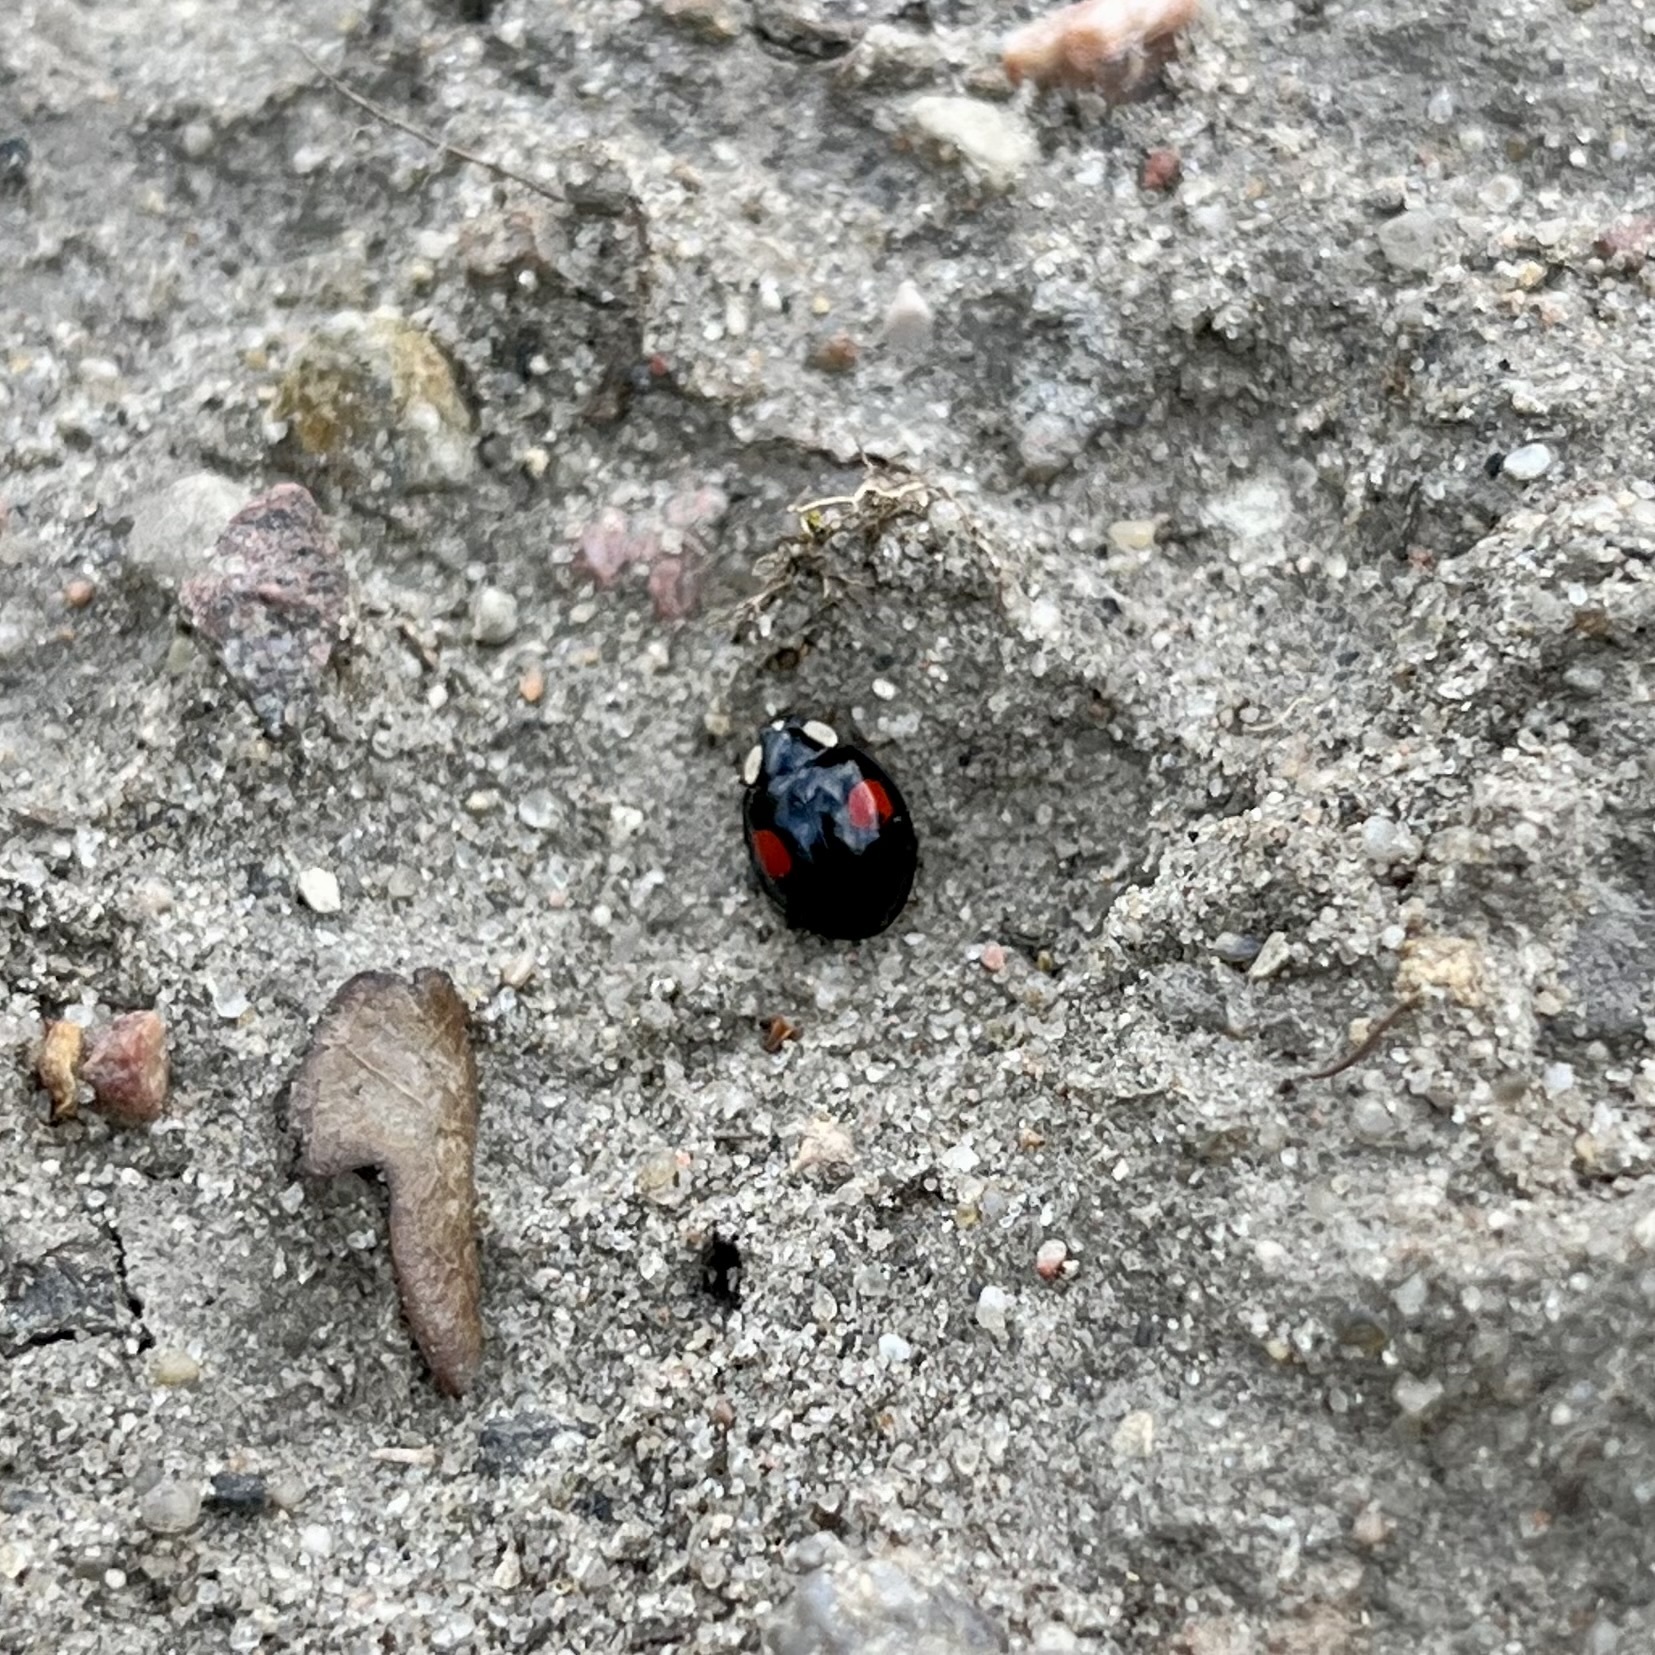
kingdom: Animalia
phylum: Arthropoda
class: Insecta
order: Coleoptera
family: Coccinellidae
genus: Harmonia
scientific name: Harmonia axyridis
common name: Harlequin ladybird
